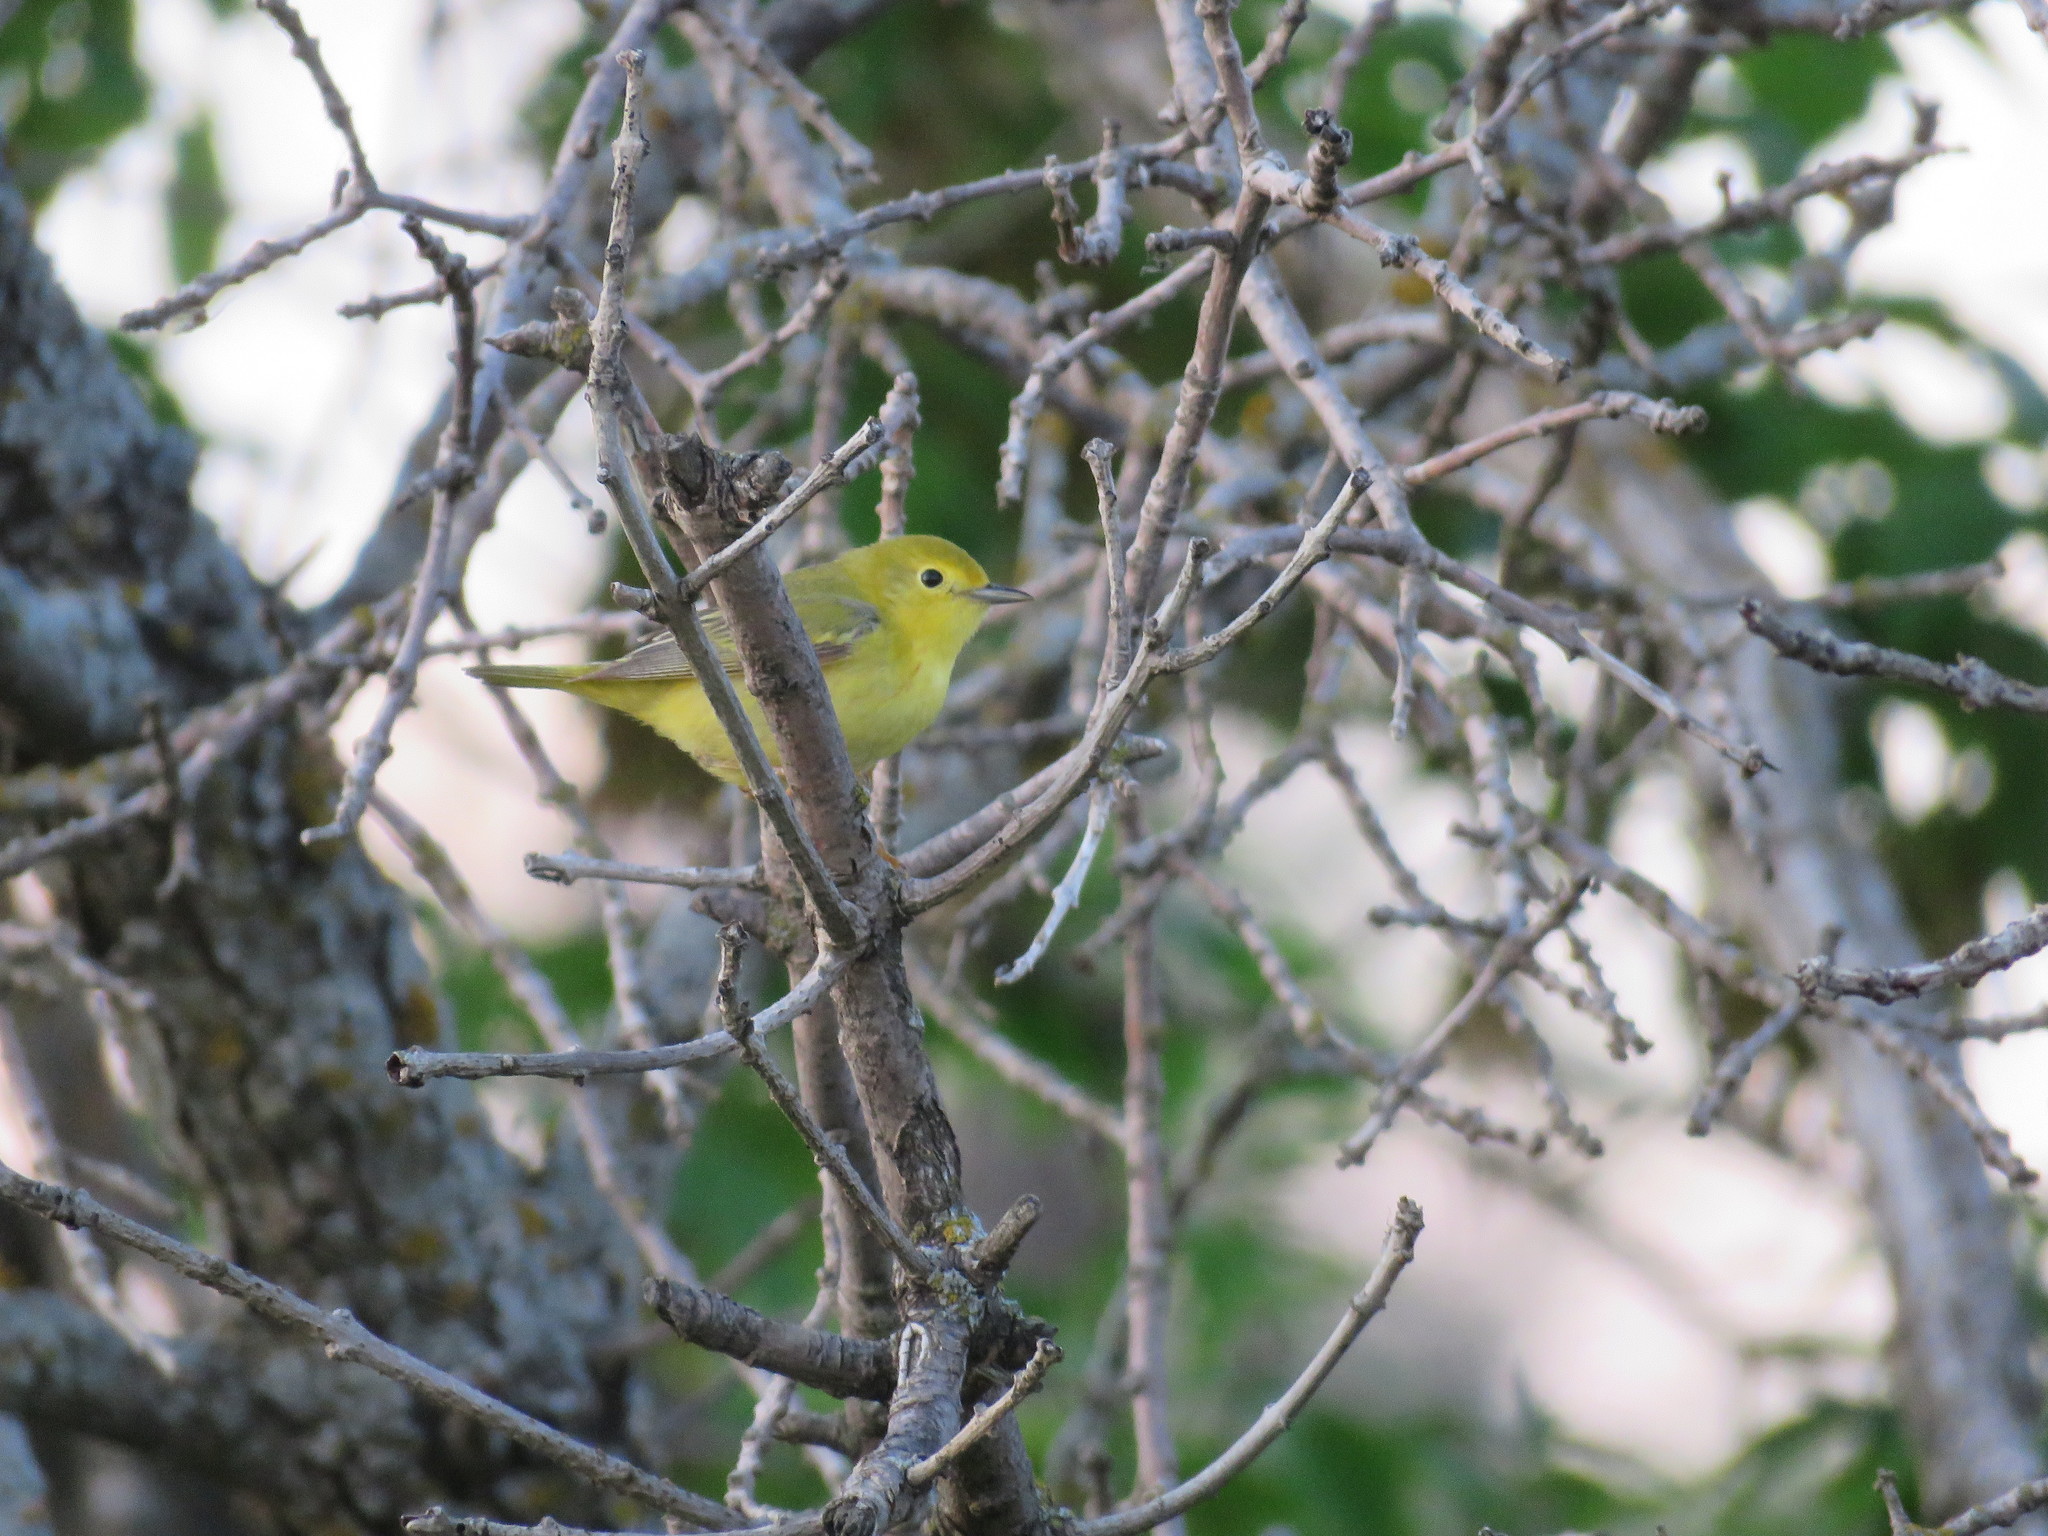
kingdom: Animalia
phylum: Chordata
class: Aves
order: Passeriformes
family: Parulidae
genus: Setophaga
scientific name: Setophaga petechia
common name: Yellow warbler
